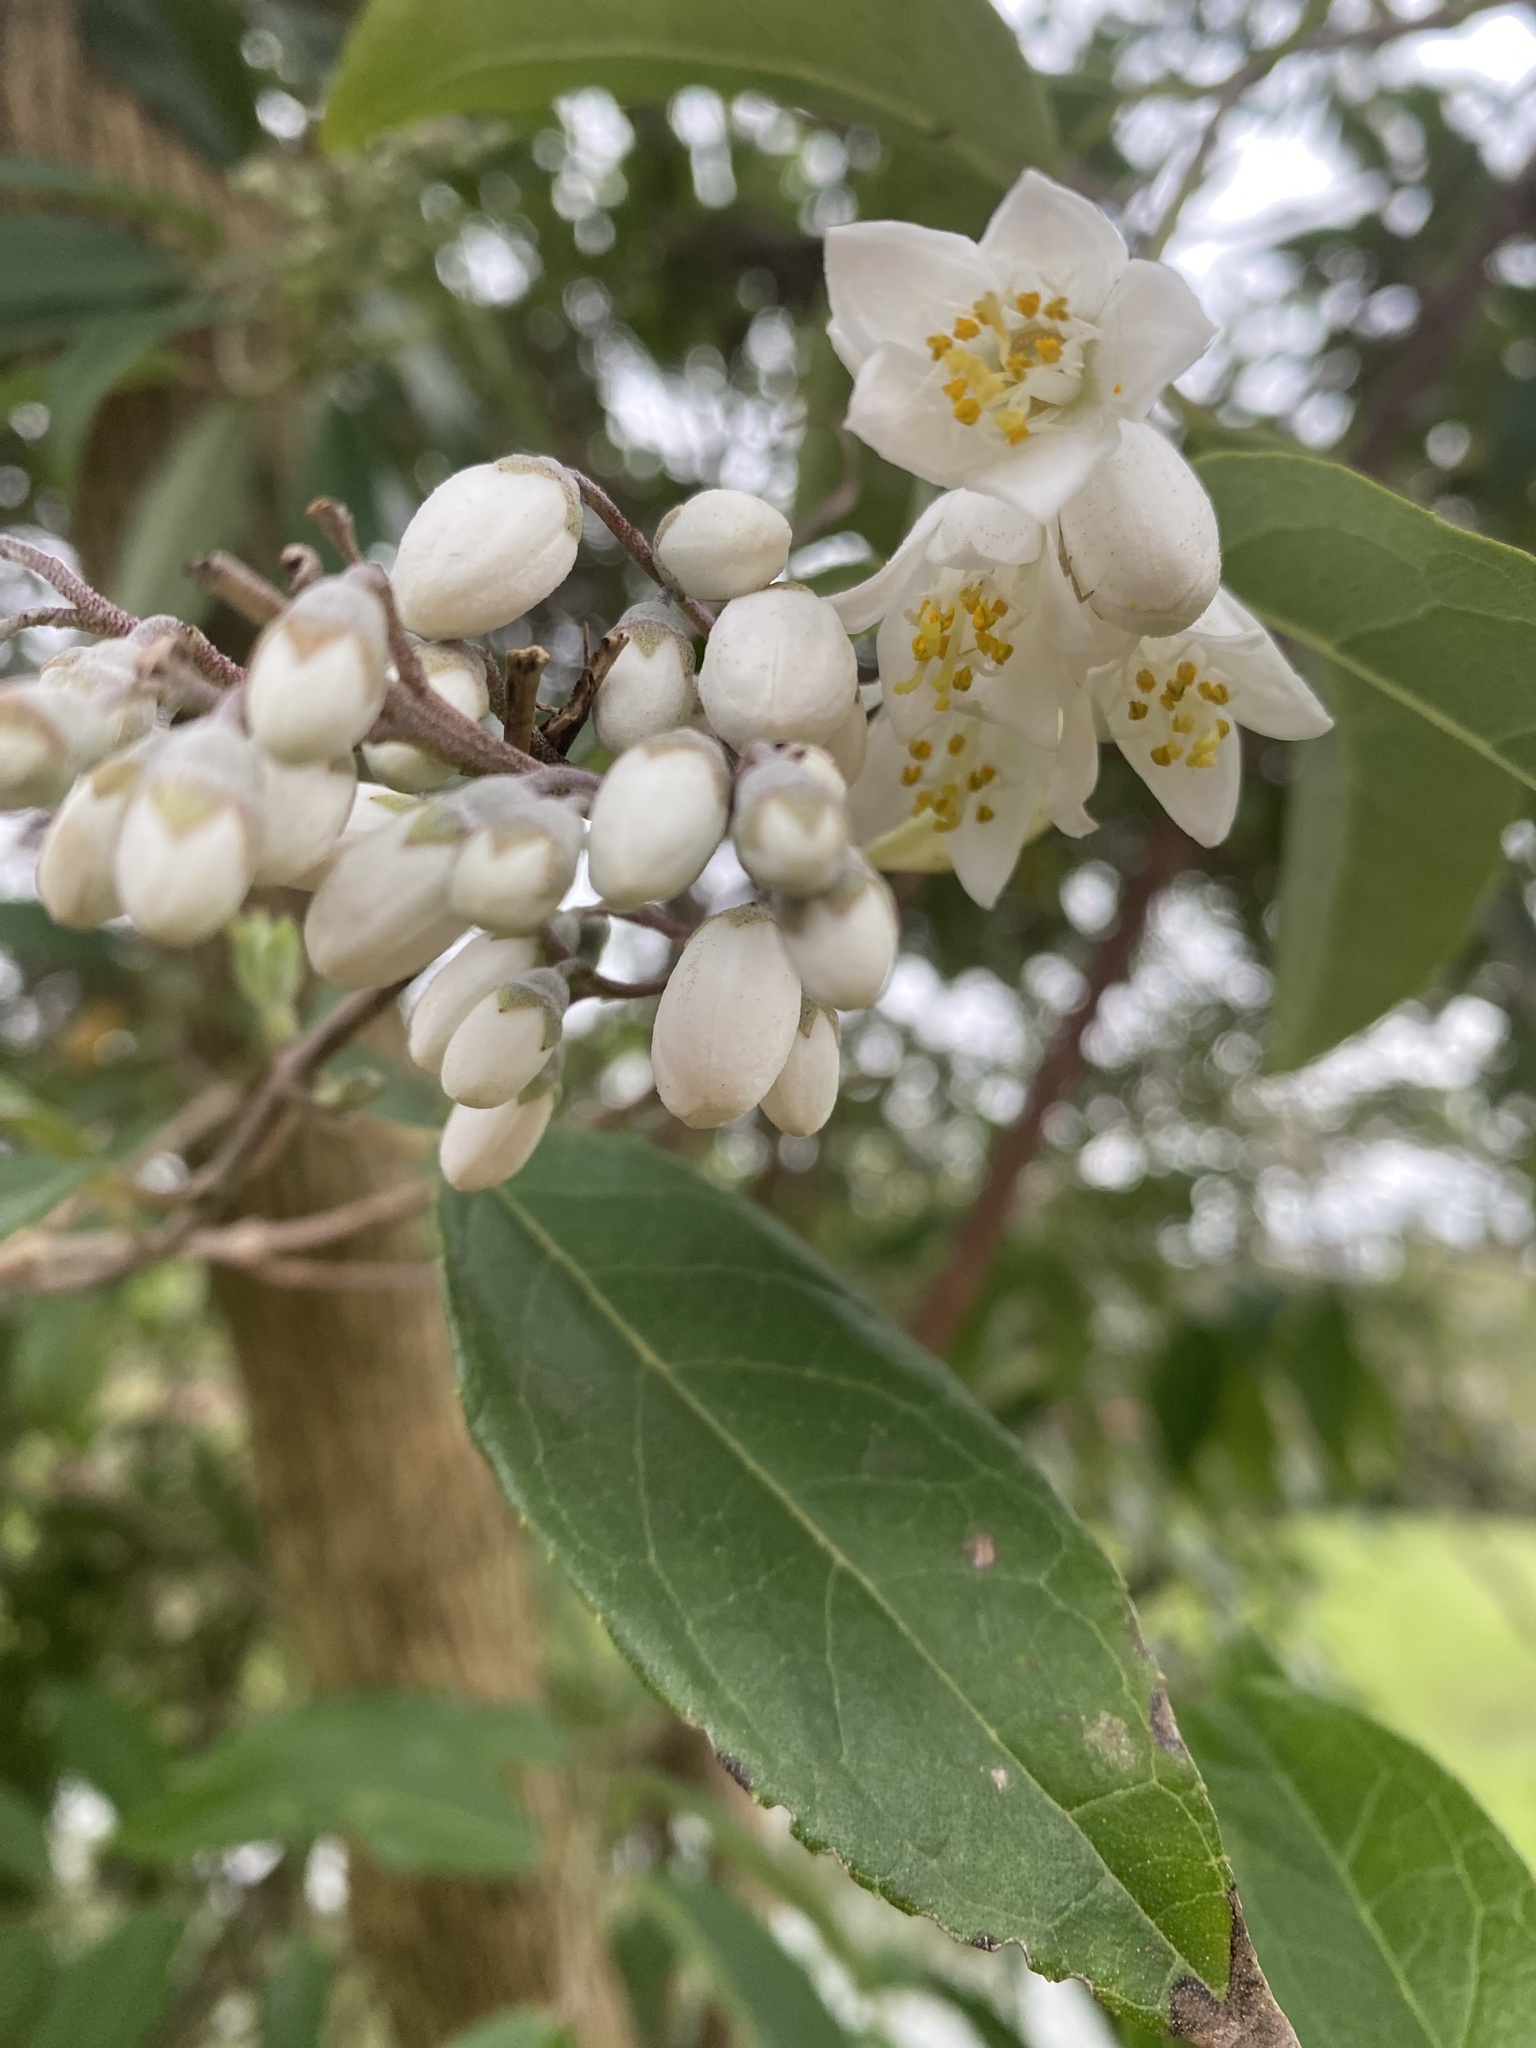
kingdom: Plantae
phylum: Tracheophyta
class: Magnoliopsida
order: Cornales
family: Hydrangeaceae
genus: Deutzia
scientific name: Deutzia pulchra
